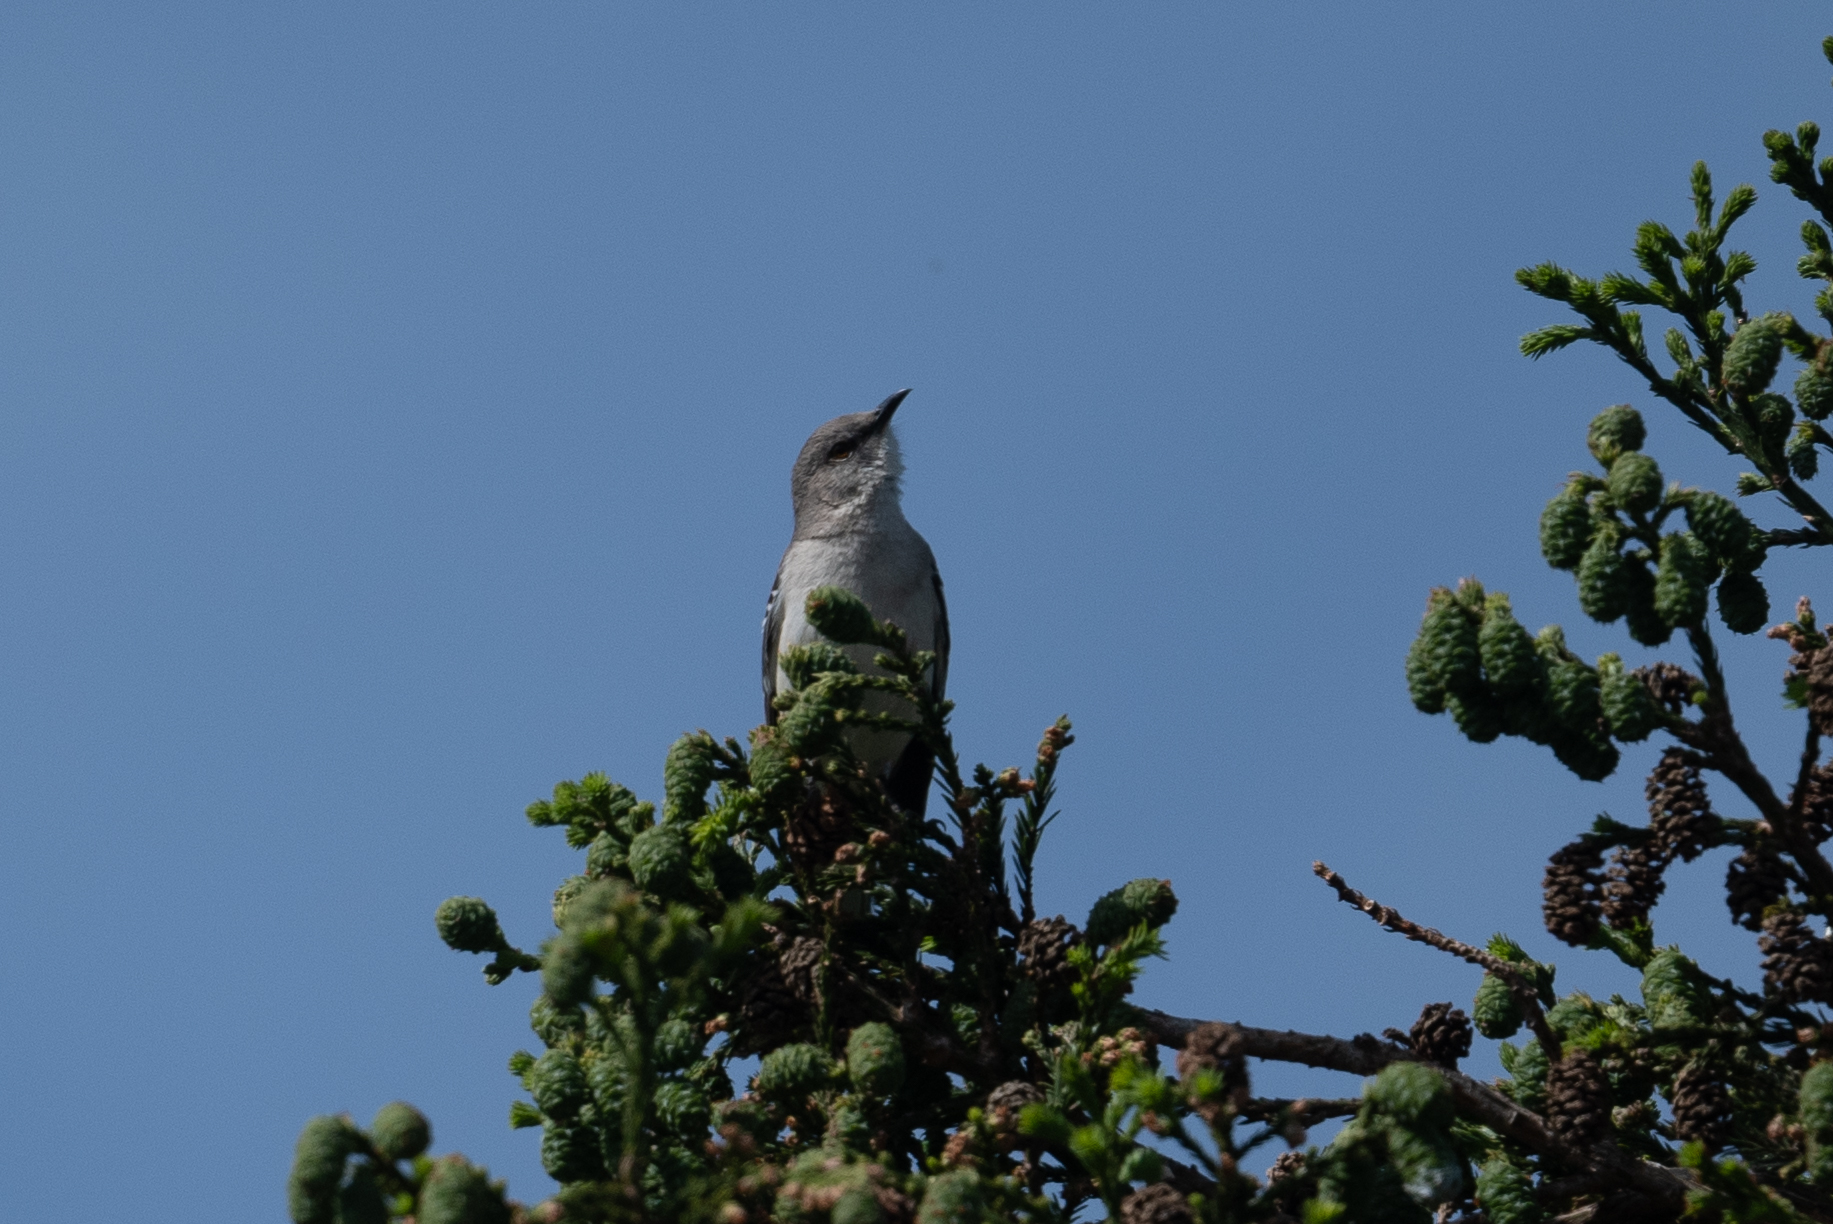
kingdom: Animalia
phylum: Chordata
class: Aves
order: Passeriformes
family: Mimidae
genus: Mimus
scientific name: Mimus polyglottos
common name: Northern mockingbird
